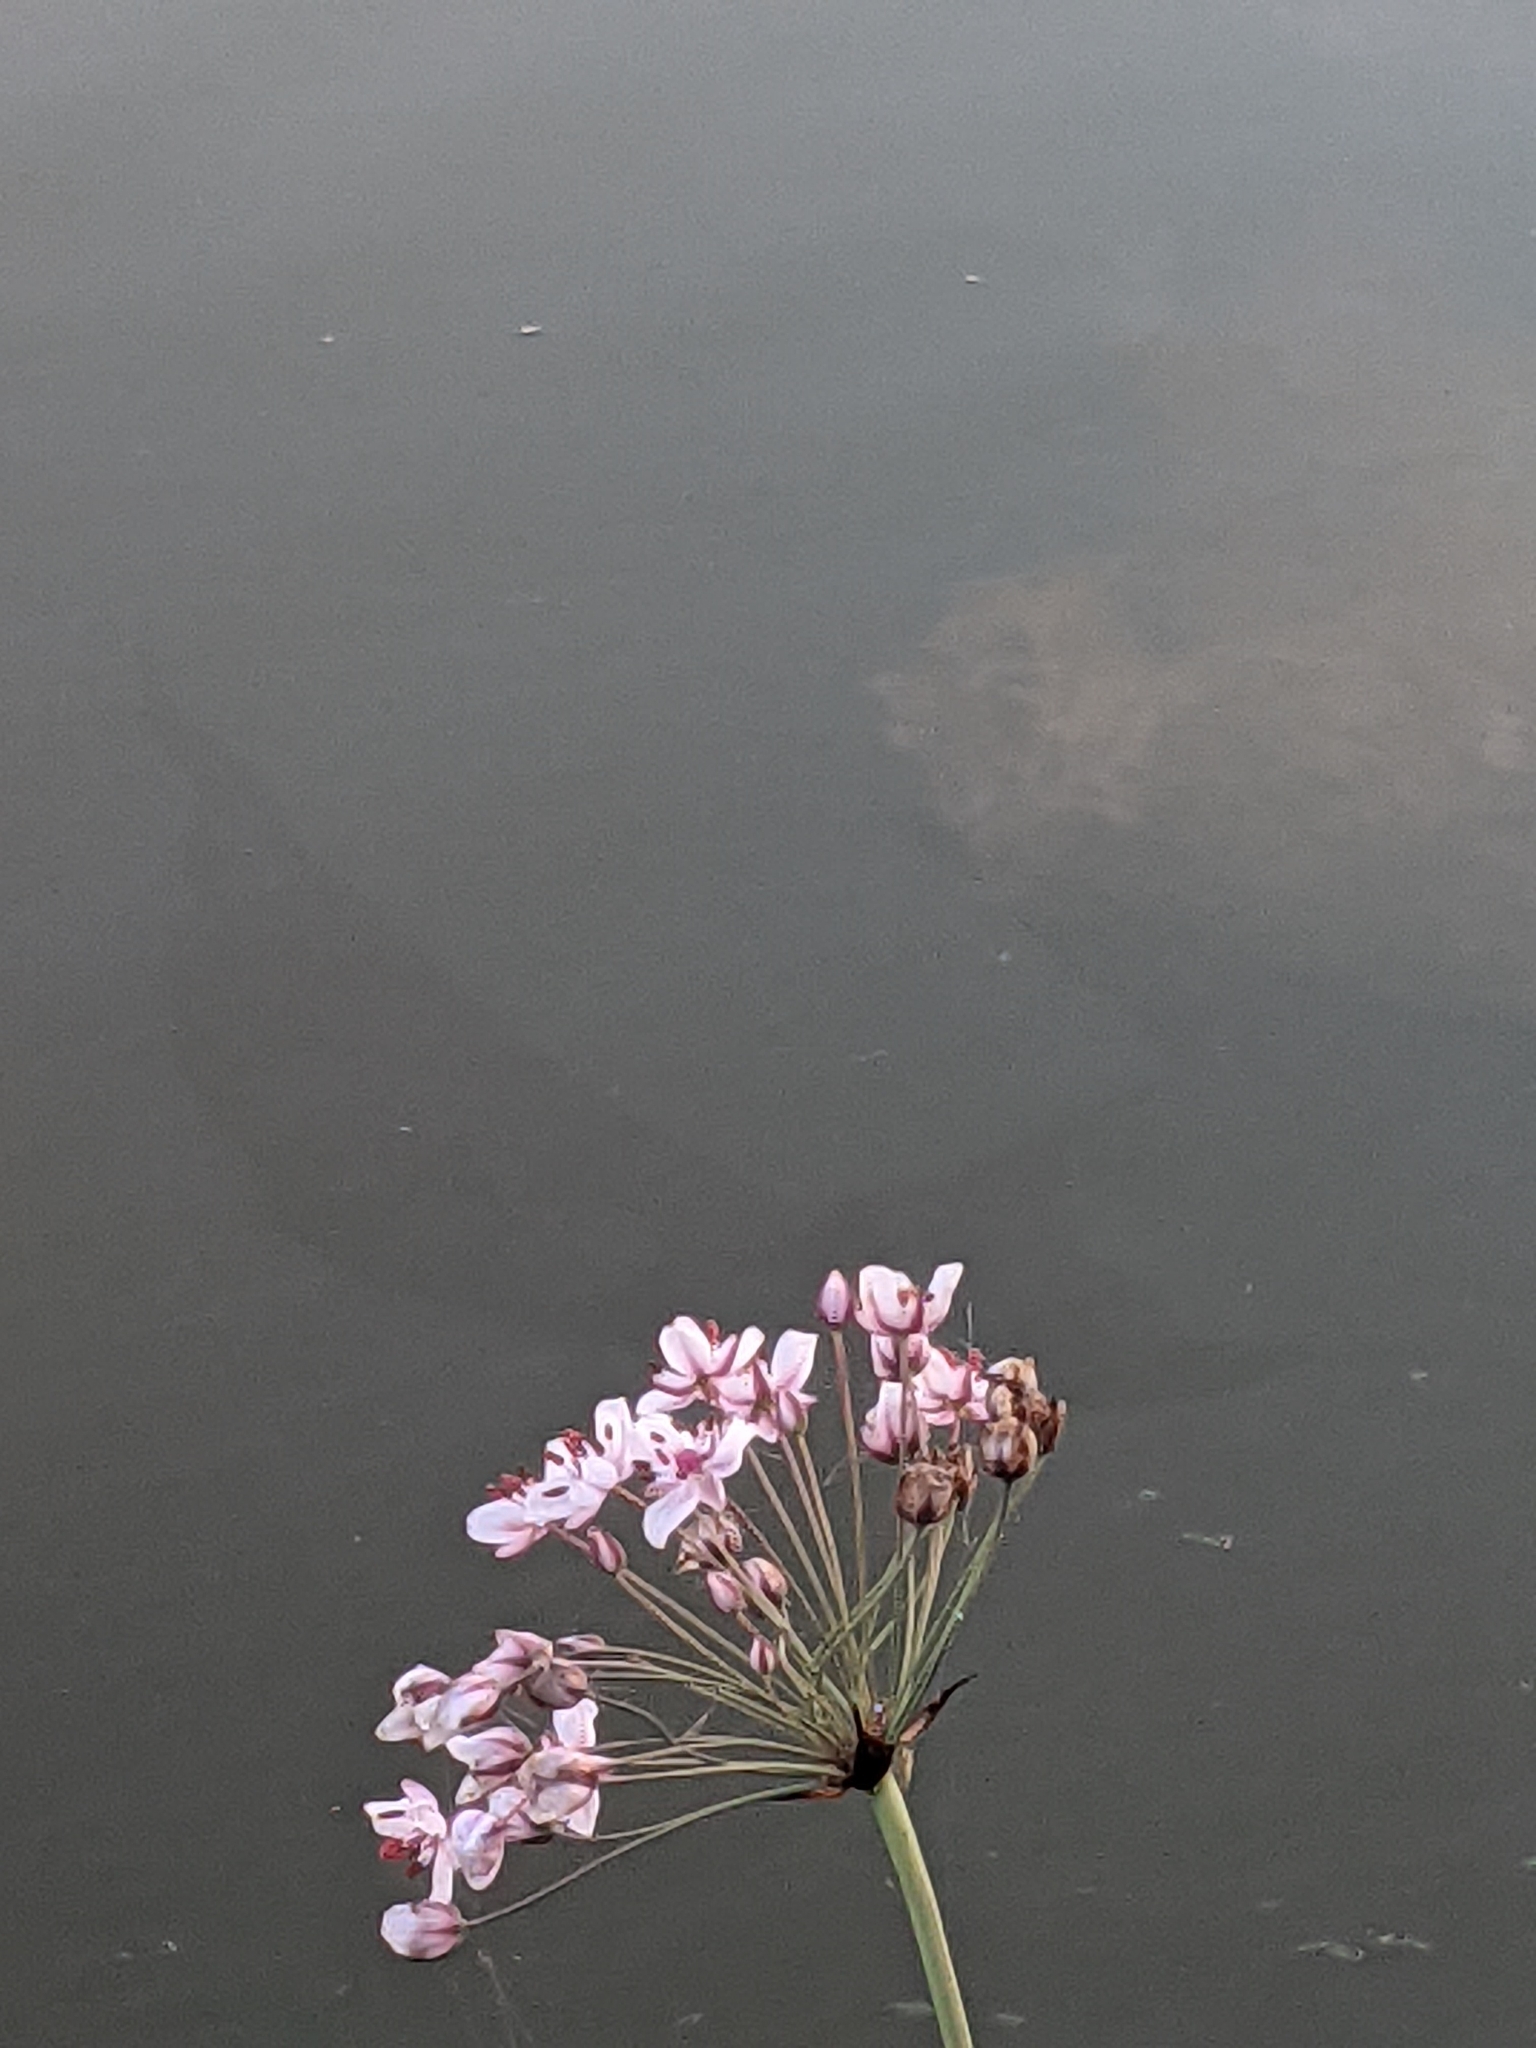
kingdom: Plantae
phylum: Tracheophyta
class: Liliopsida
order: Alismatales
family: Butomaceae
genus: Butomus
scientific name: Butomus umbellatus
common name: Flowering-rush
